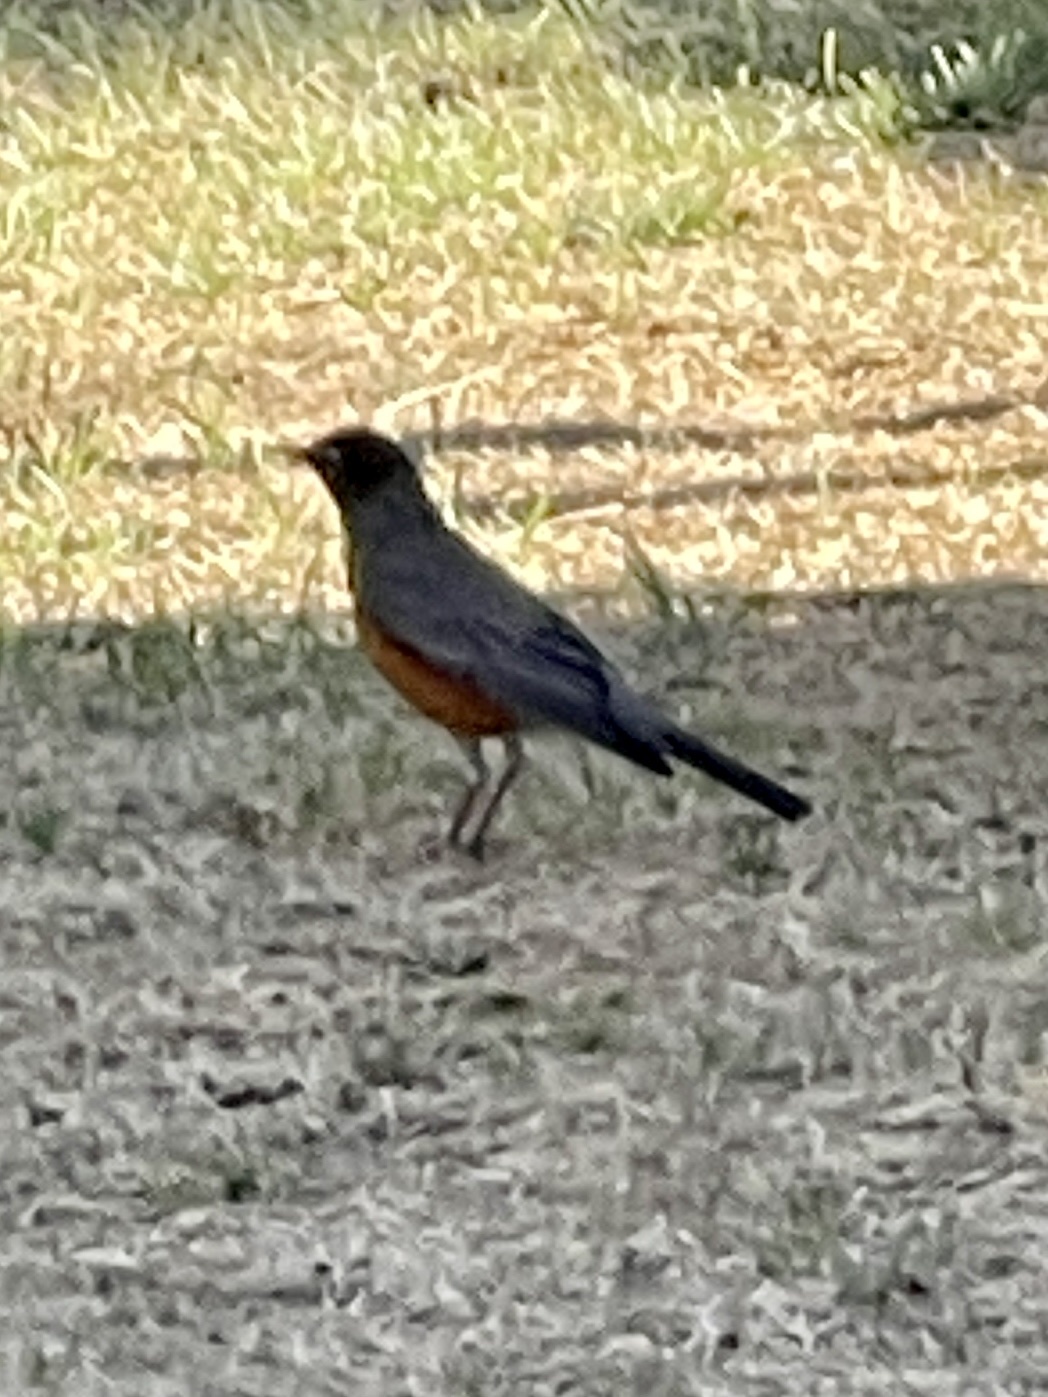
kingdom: Animalia
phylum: Chordata
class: Aves
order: Passeriformes
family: Turdidae
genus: Turdus
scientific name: Turdus migratorius
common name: American robin
